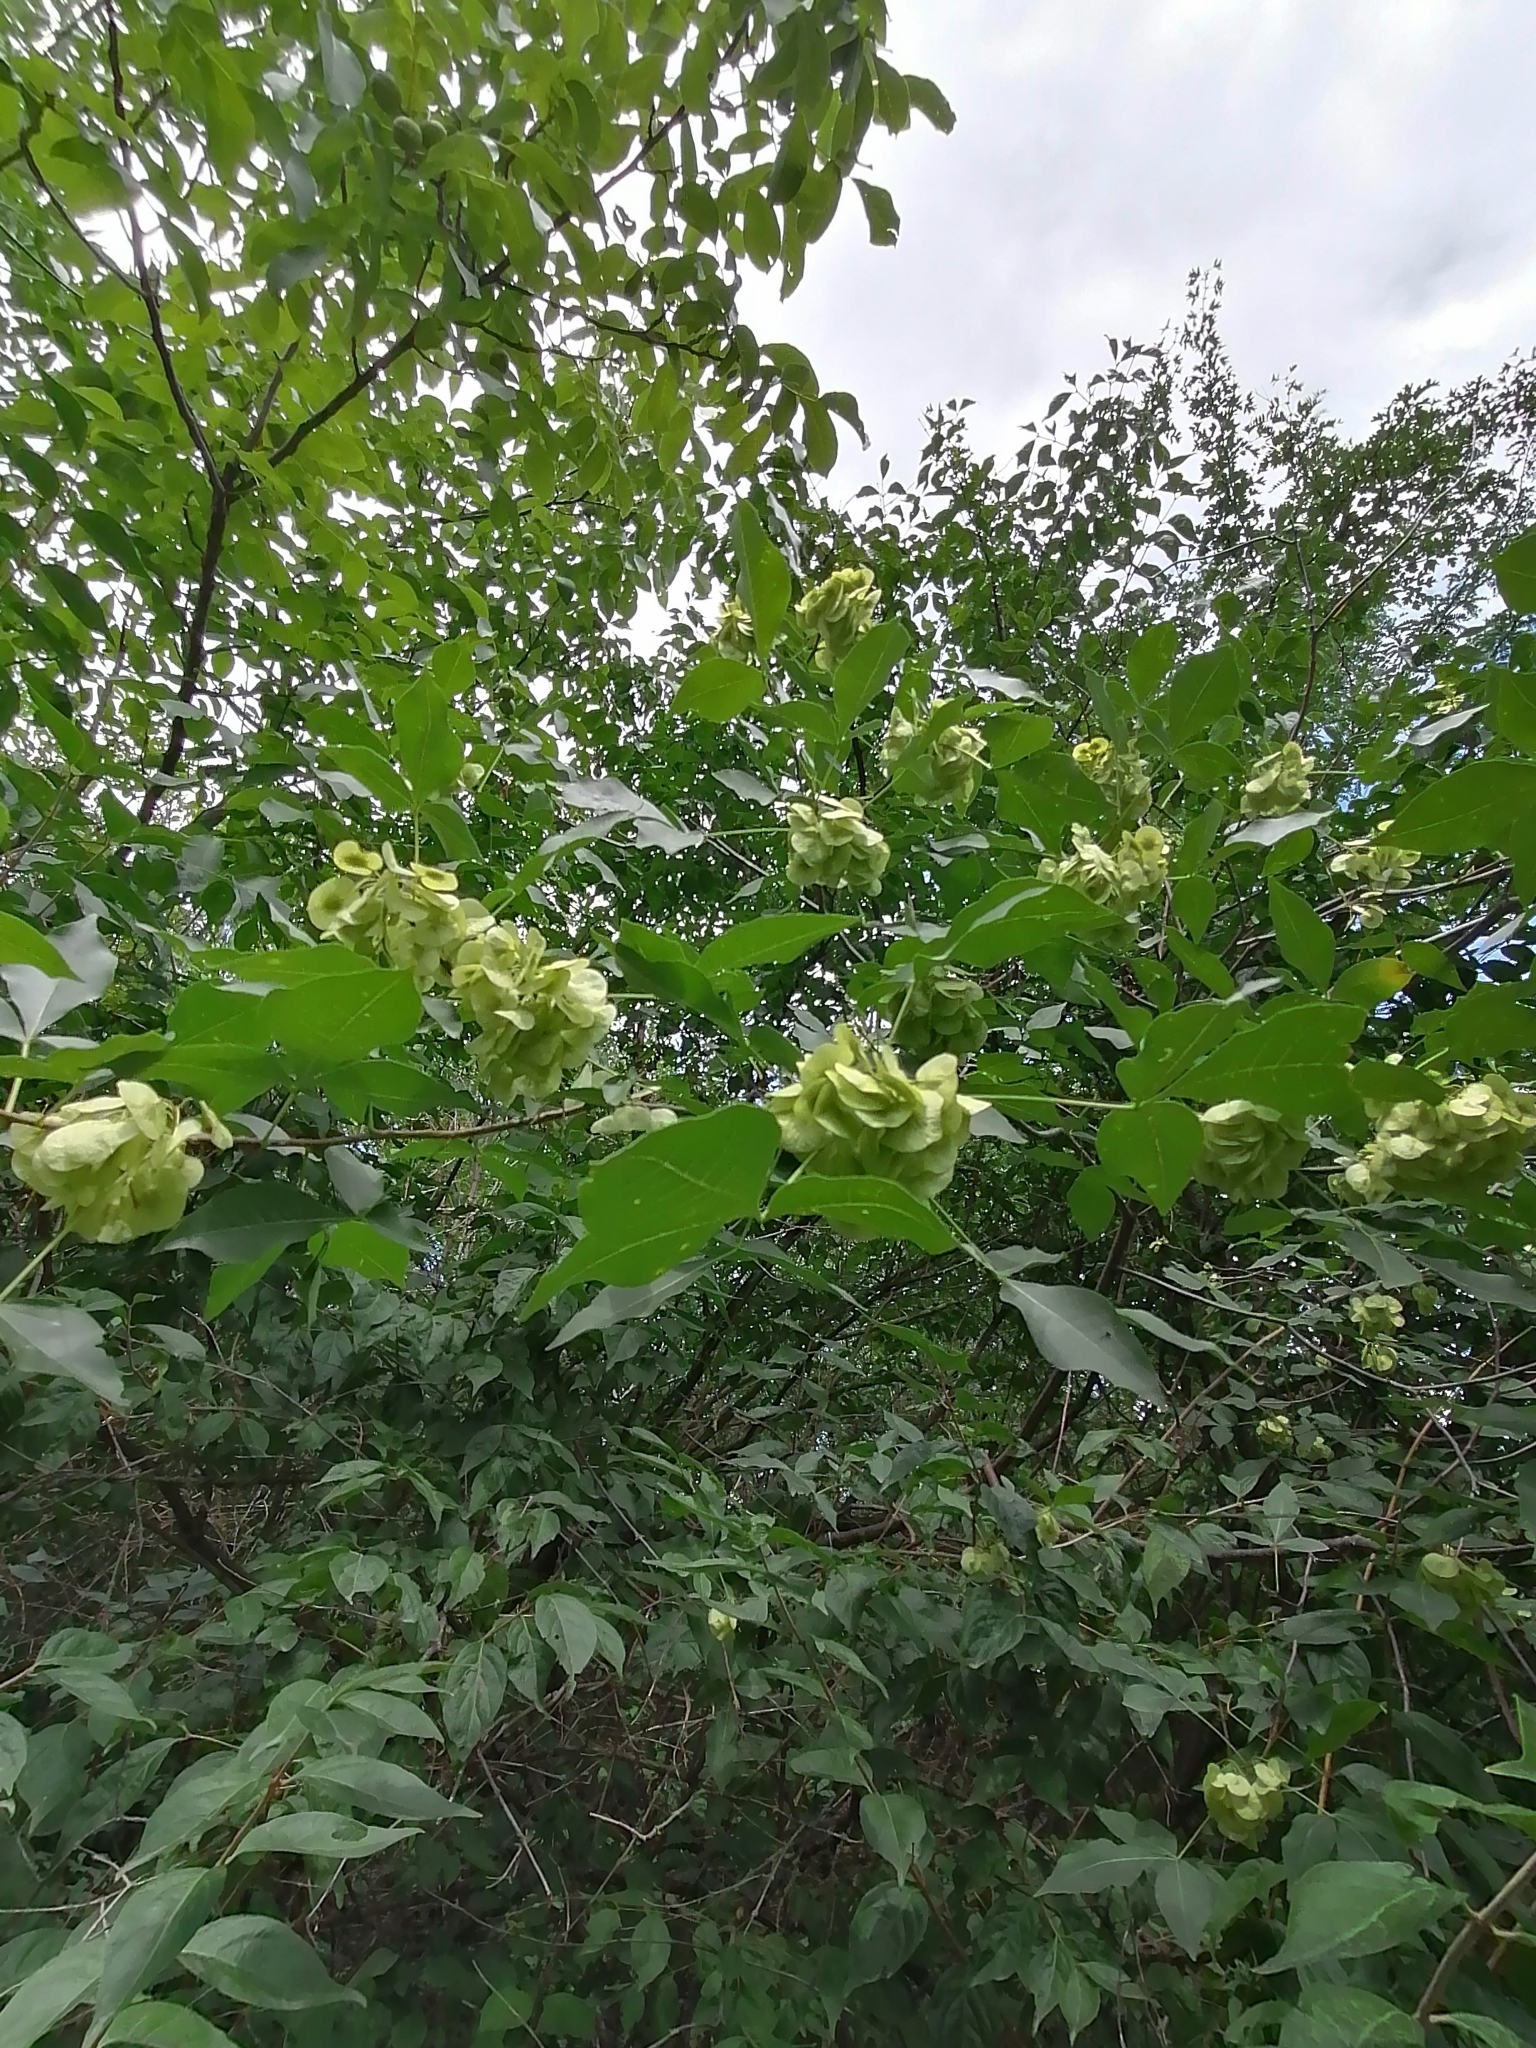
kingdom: Plantae
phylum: Tracheophyta
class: Magnoliopsida
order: Sapindales
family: Rutaceae
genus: Ptelea
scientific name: Ptelea trifoliata
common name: Common hop-tree
